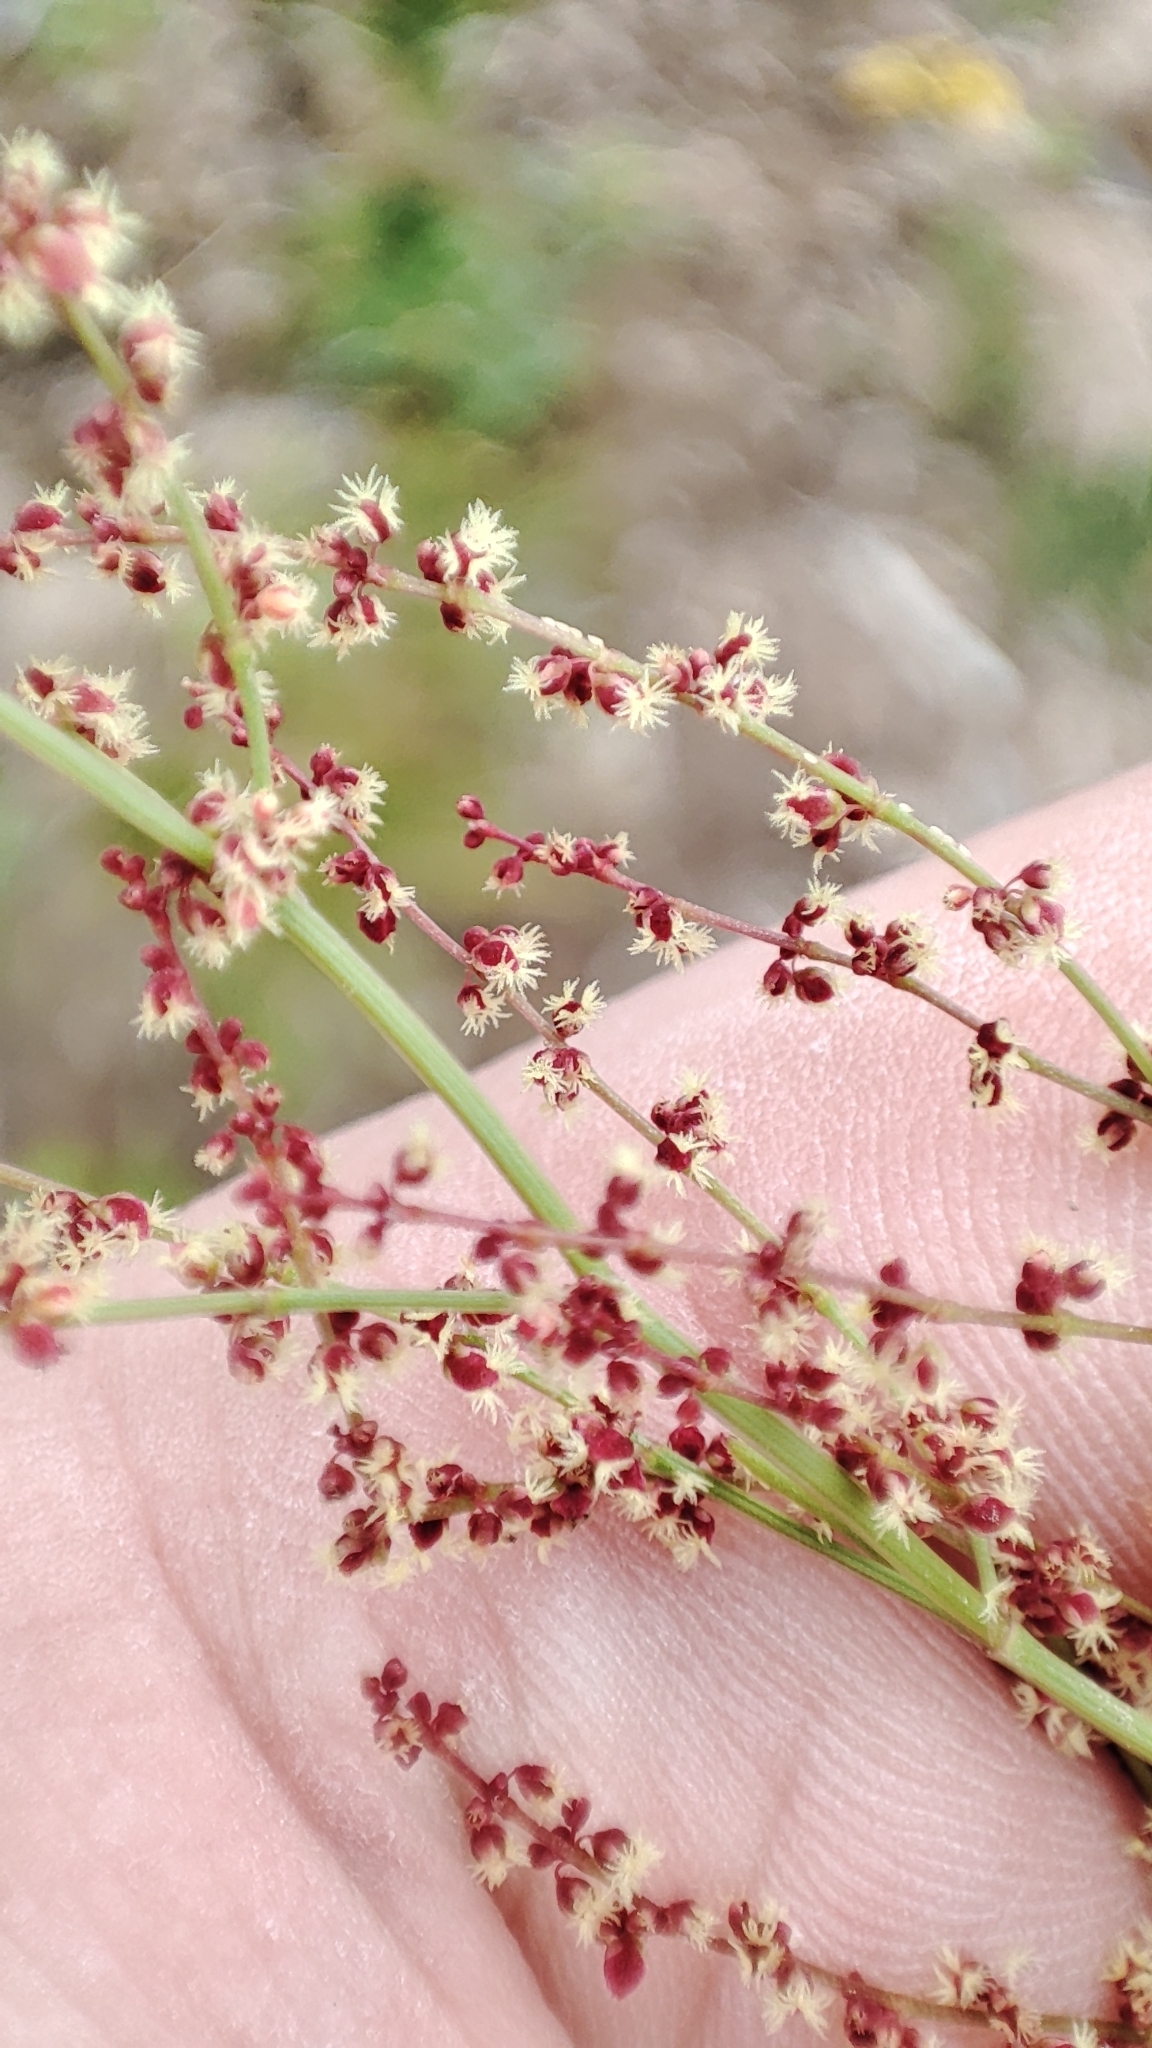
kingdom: Plantae
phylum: Tracheophyta
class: Magnoliopsida
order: Caryophyllales
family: Polygonaceae
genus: Rumex
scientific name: Rumex acetosella
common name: Common sheep sorrel
